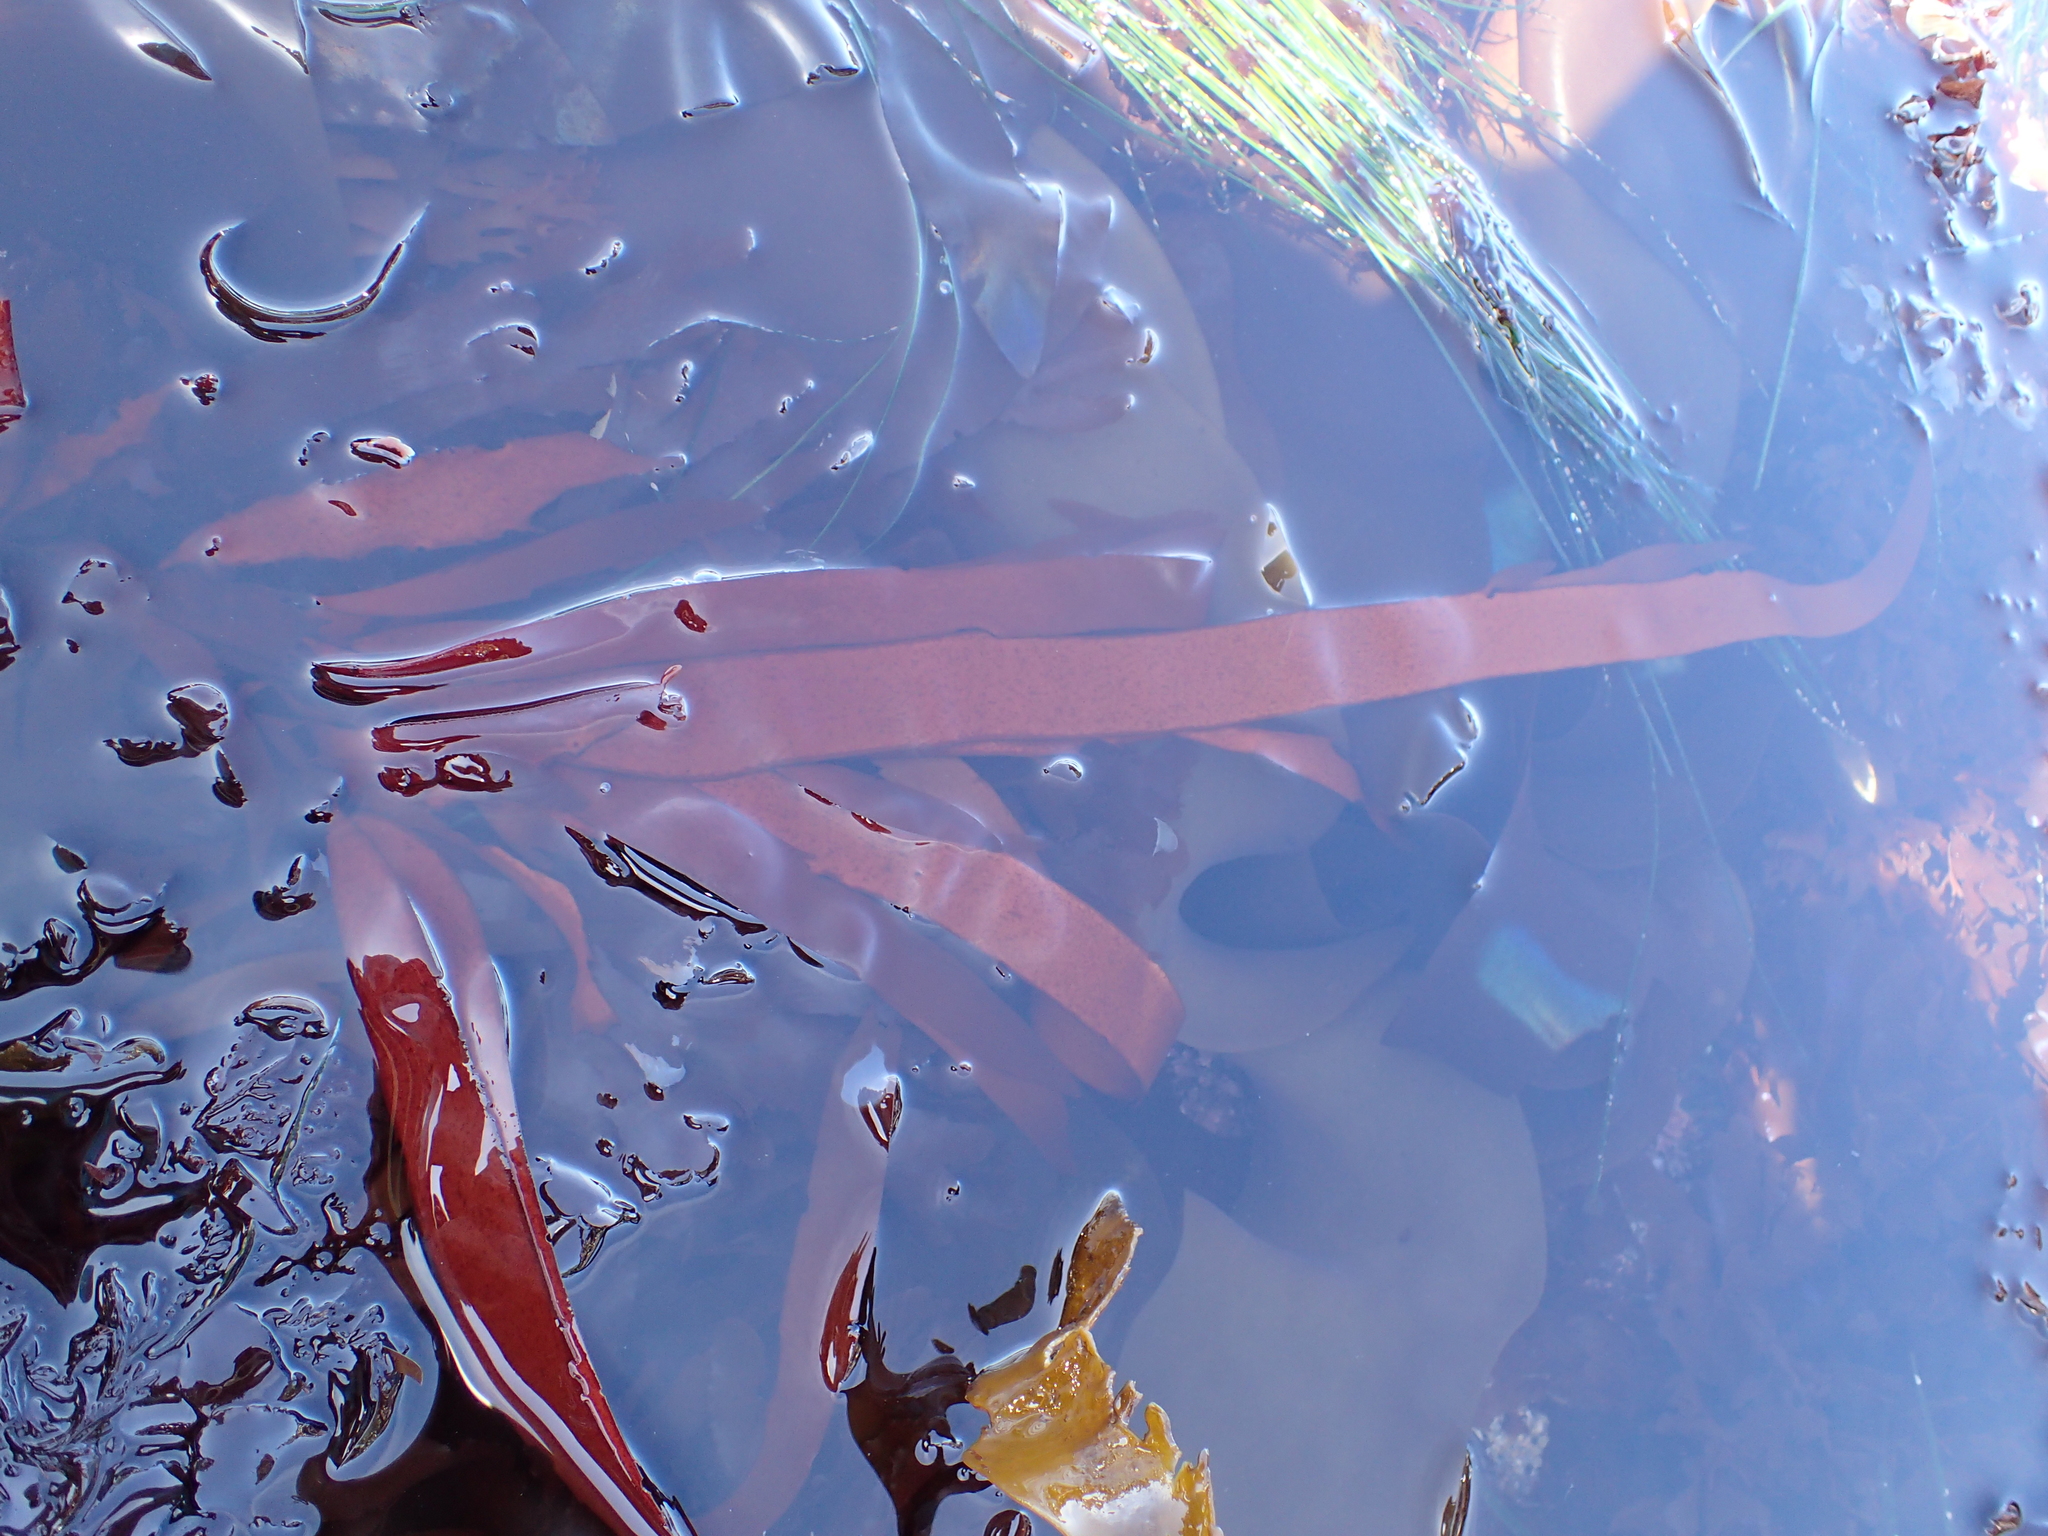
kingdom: Plantae
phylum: Rhodophyta
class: Florideophyceae
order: Halymeniales
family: Halymeniaceae
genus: Grateloupia
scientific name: Grateloupia Prionitis sternbergii
